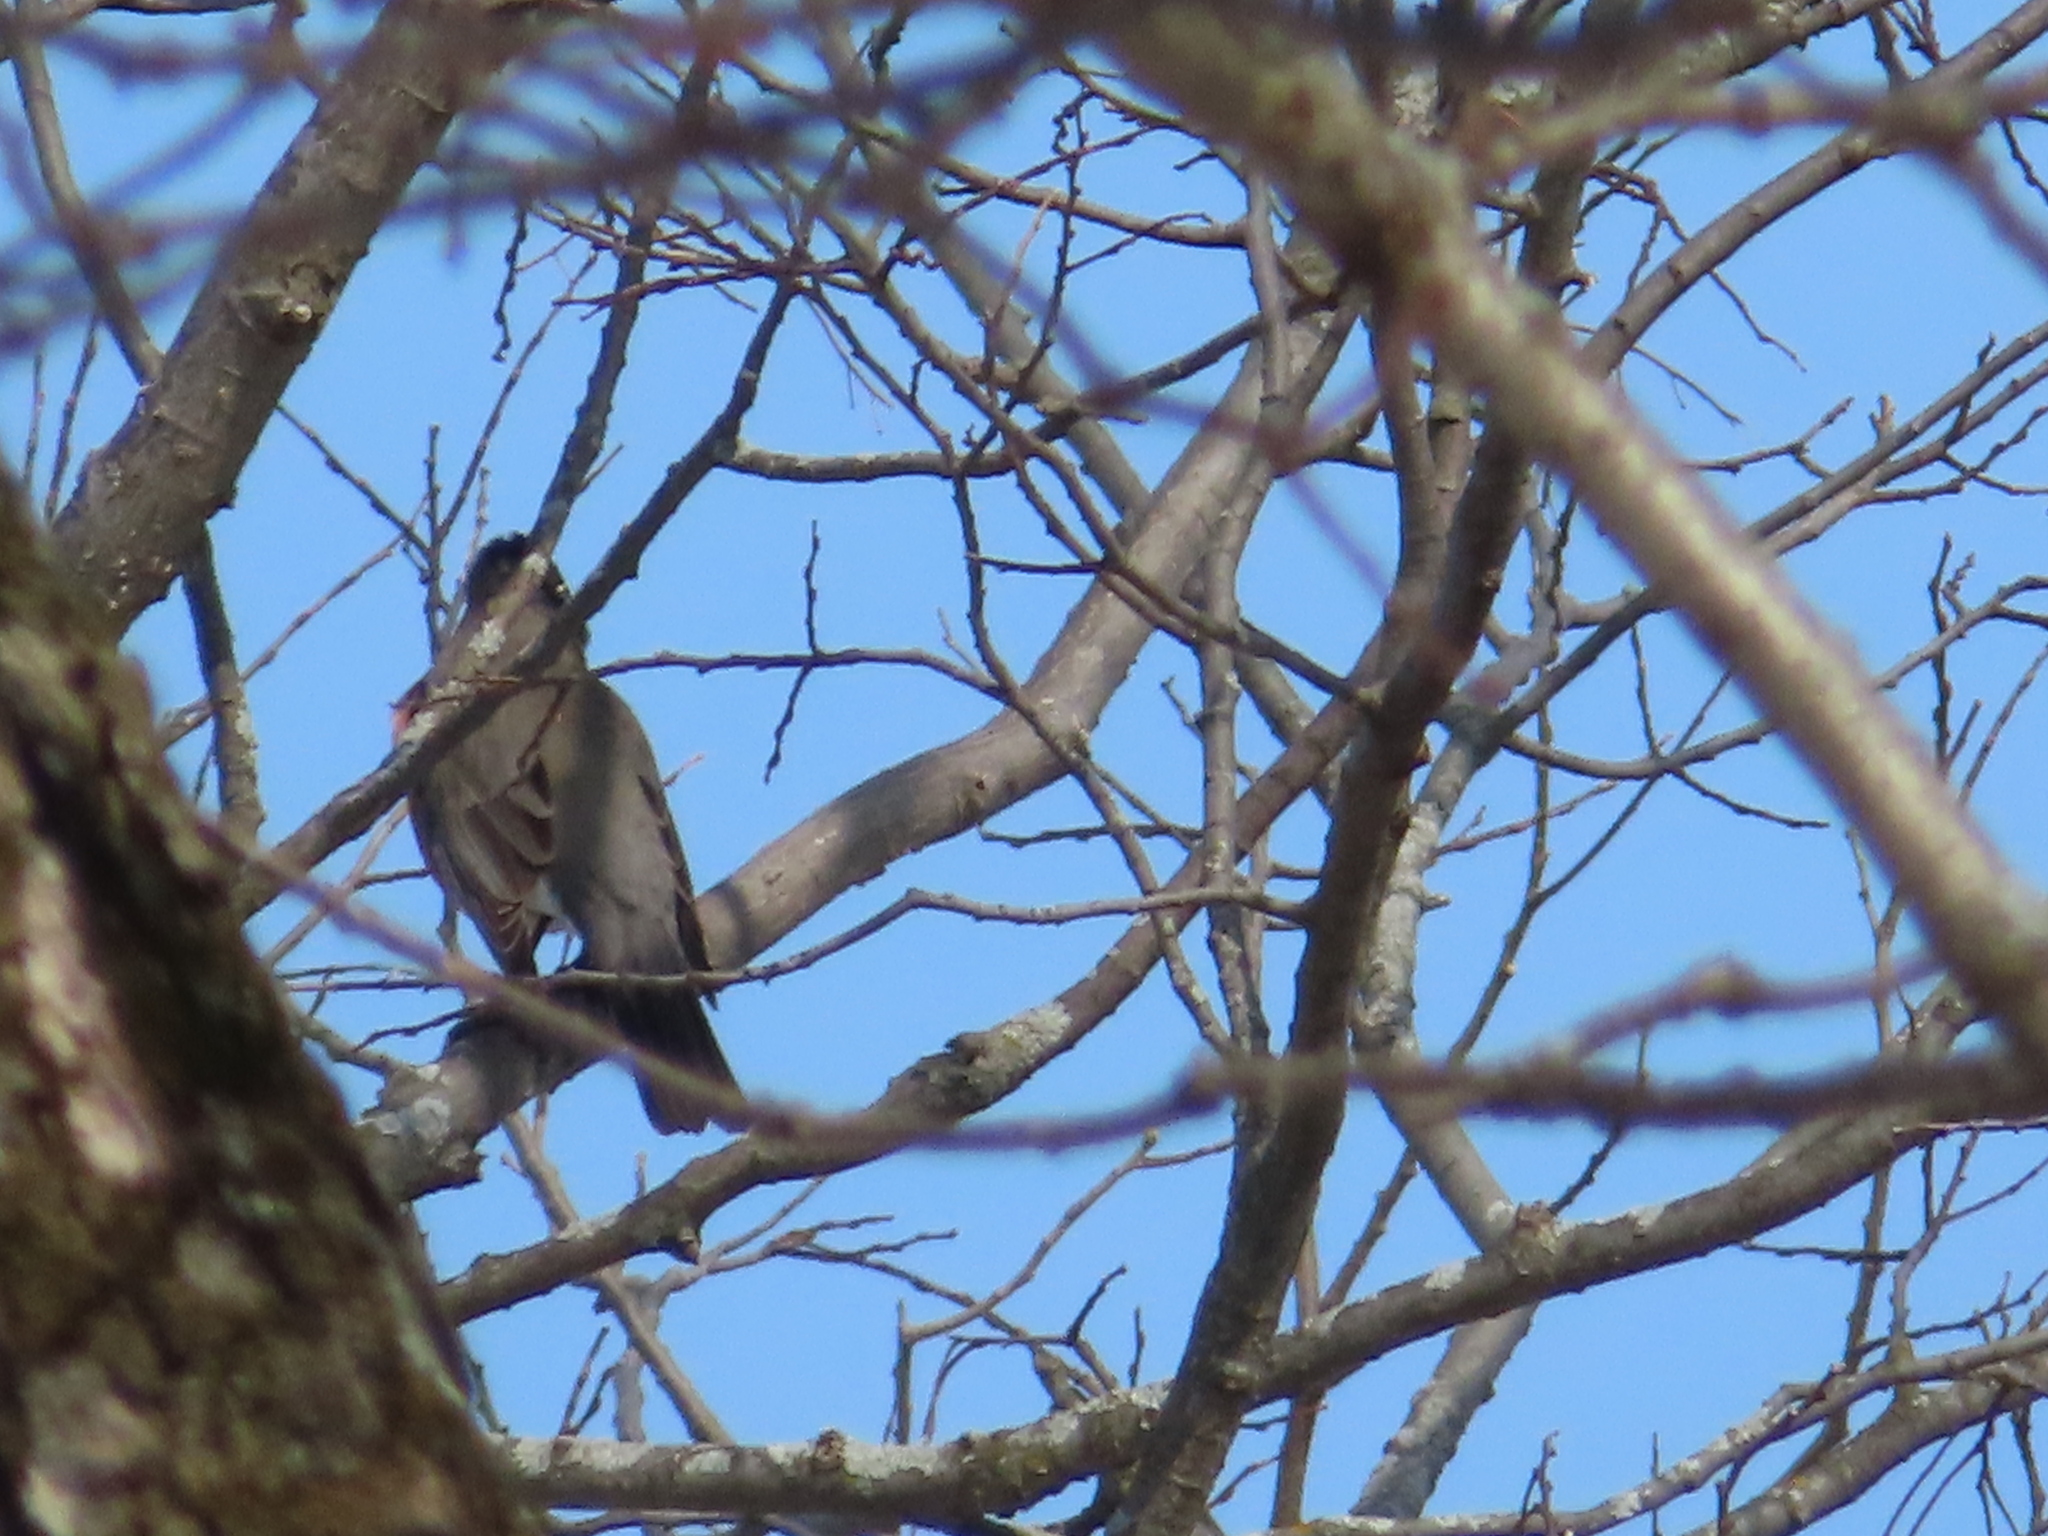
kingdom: Animalia
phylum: Chordata
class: Aves
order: Passeriformes
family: Turdidae
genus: Turdus
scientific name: Turdus migratorius
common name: American robin
